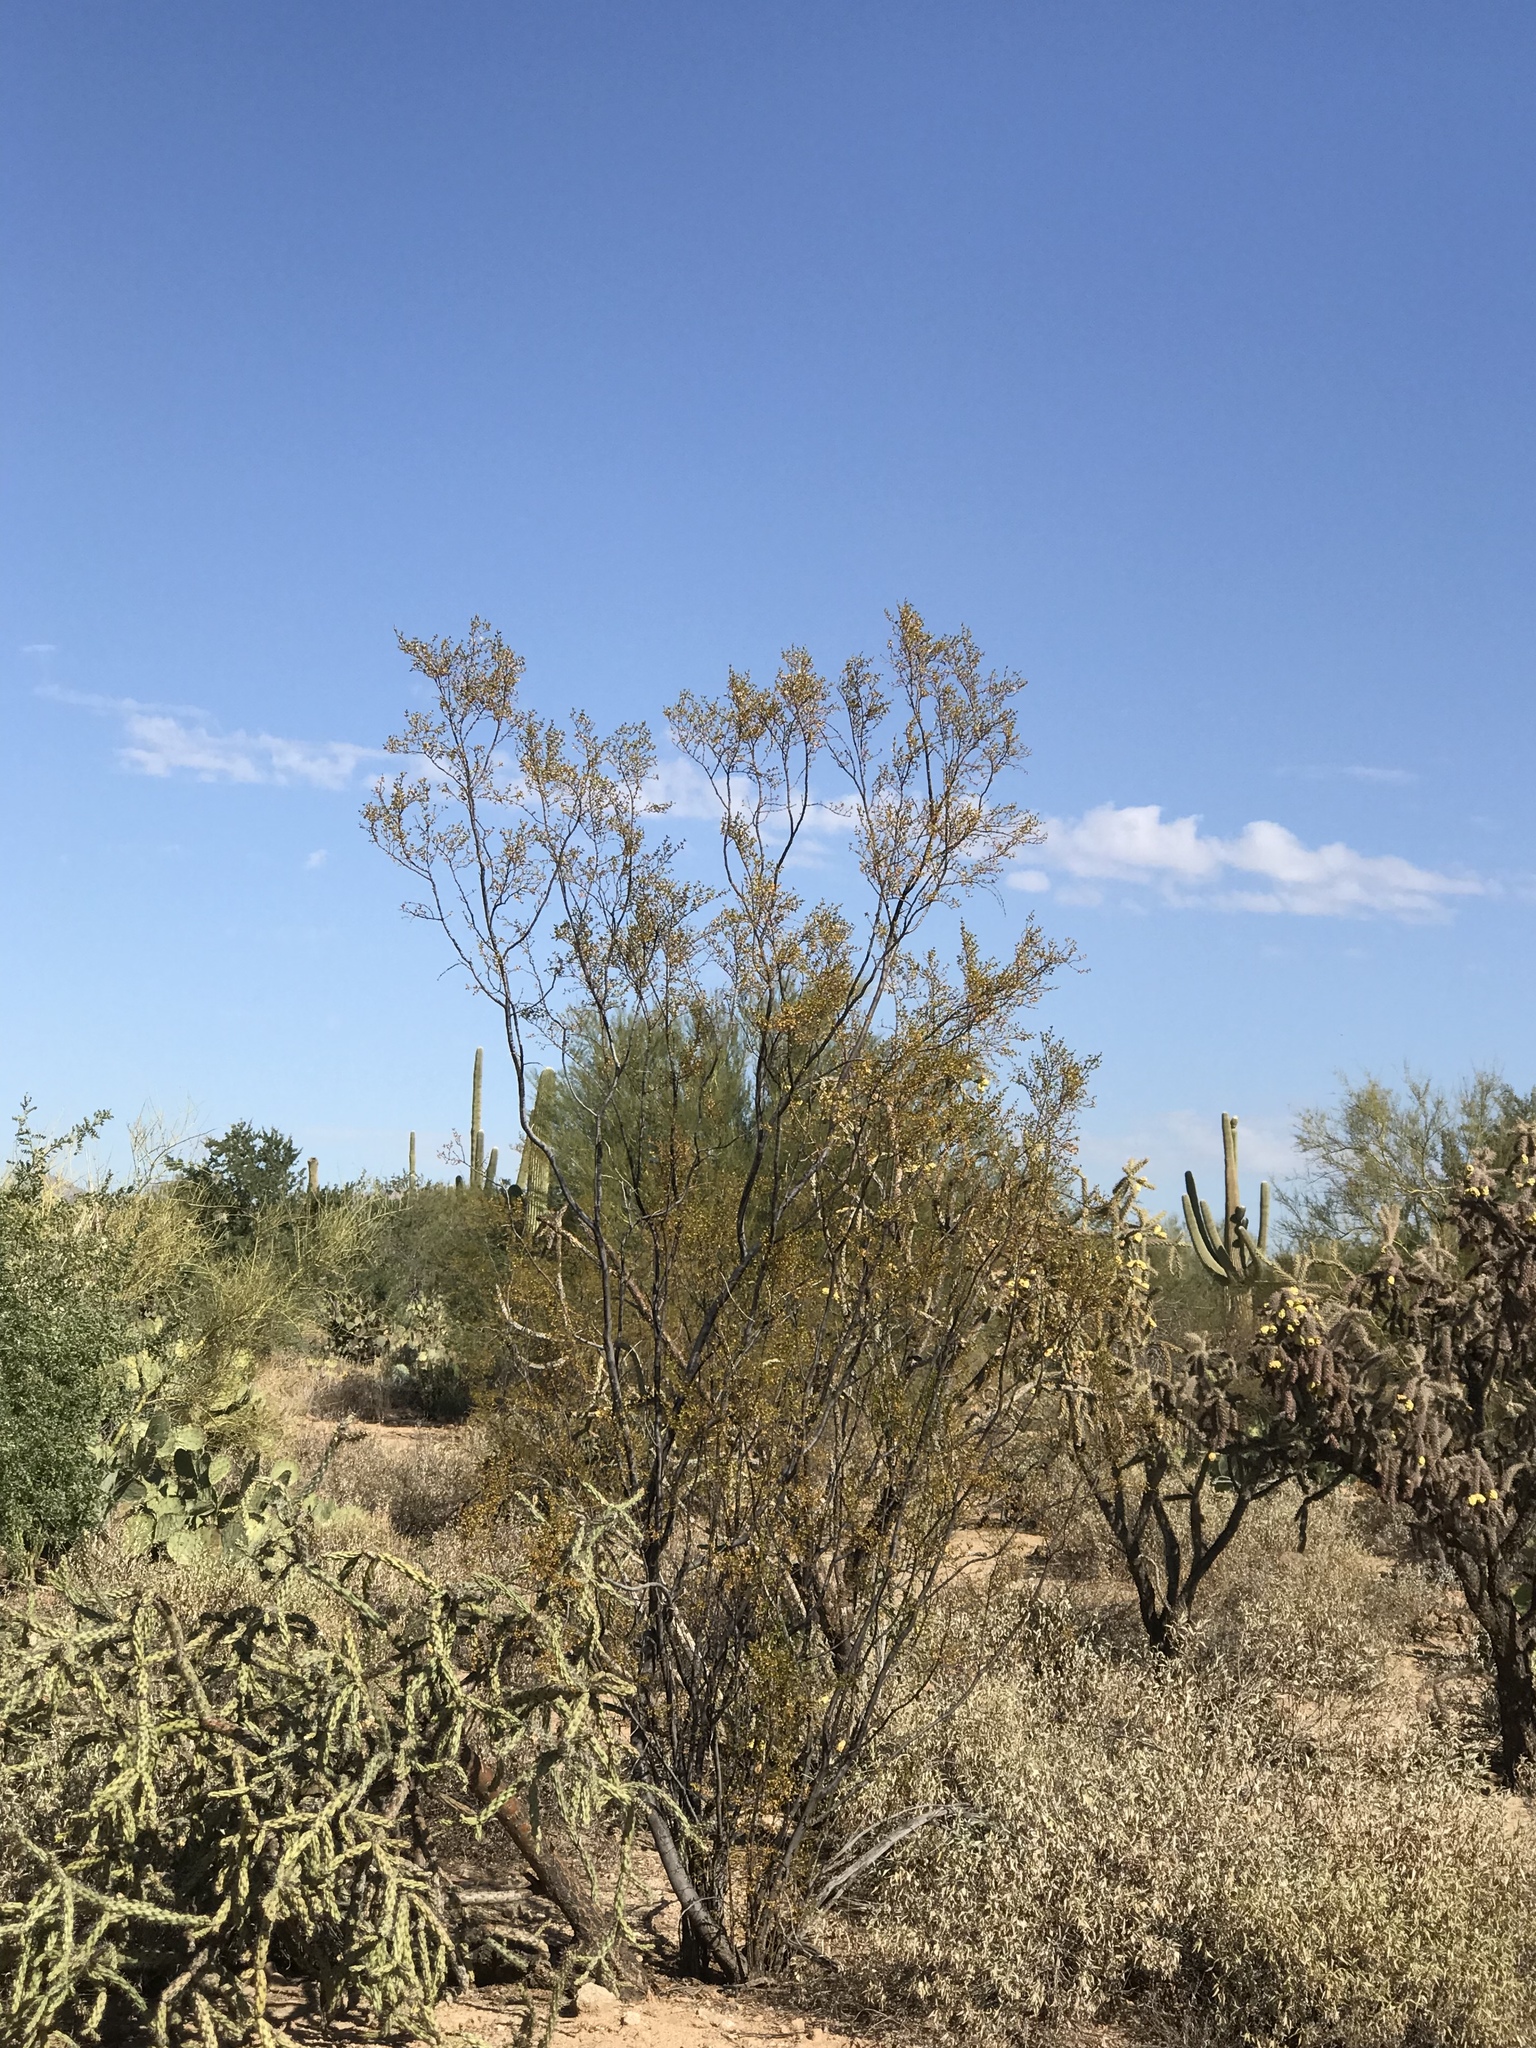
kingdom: Plantae
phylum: Tracheophyta
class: Magnoliopsida
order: Zygophyllales
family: Zygophyllaceae
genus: Larrea
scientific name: Larrea tridentata
